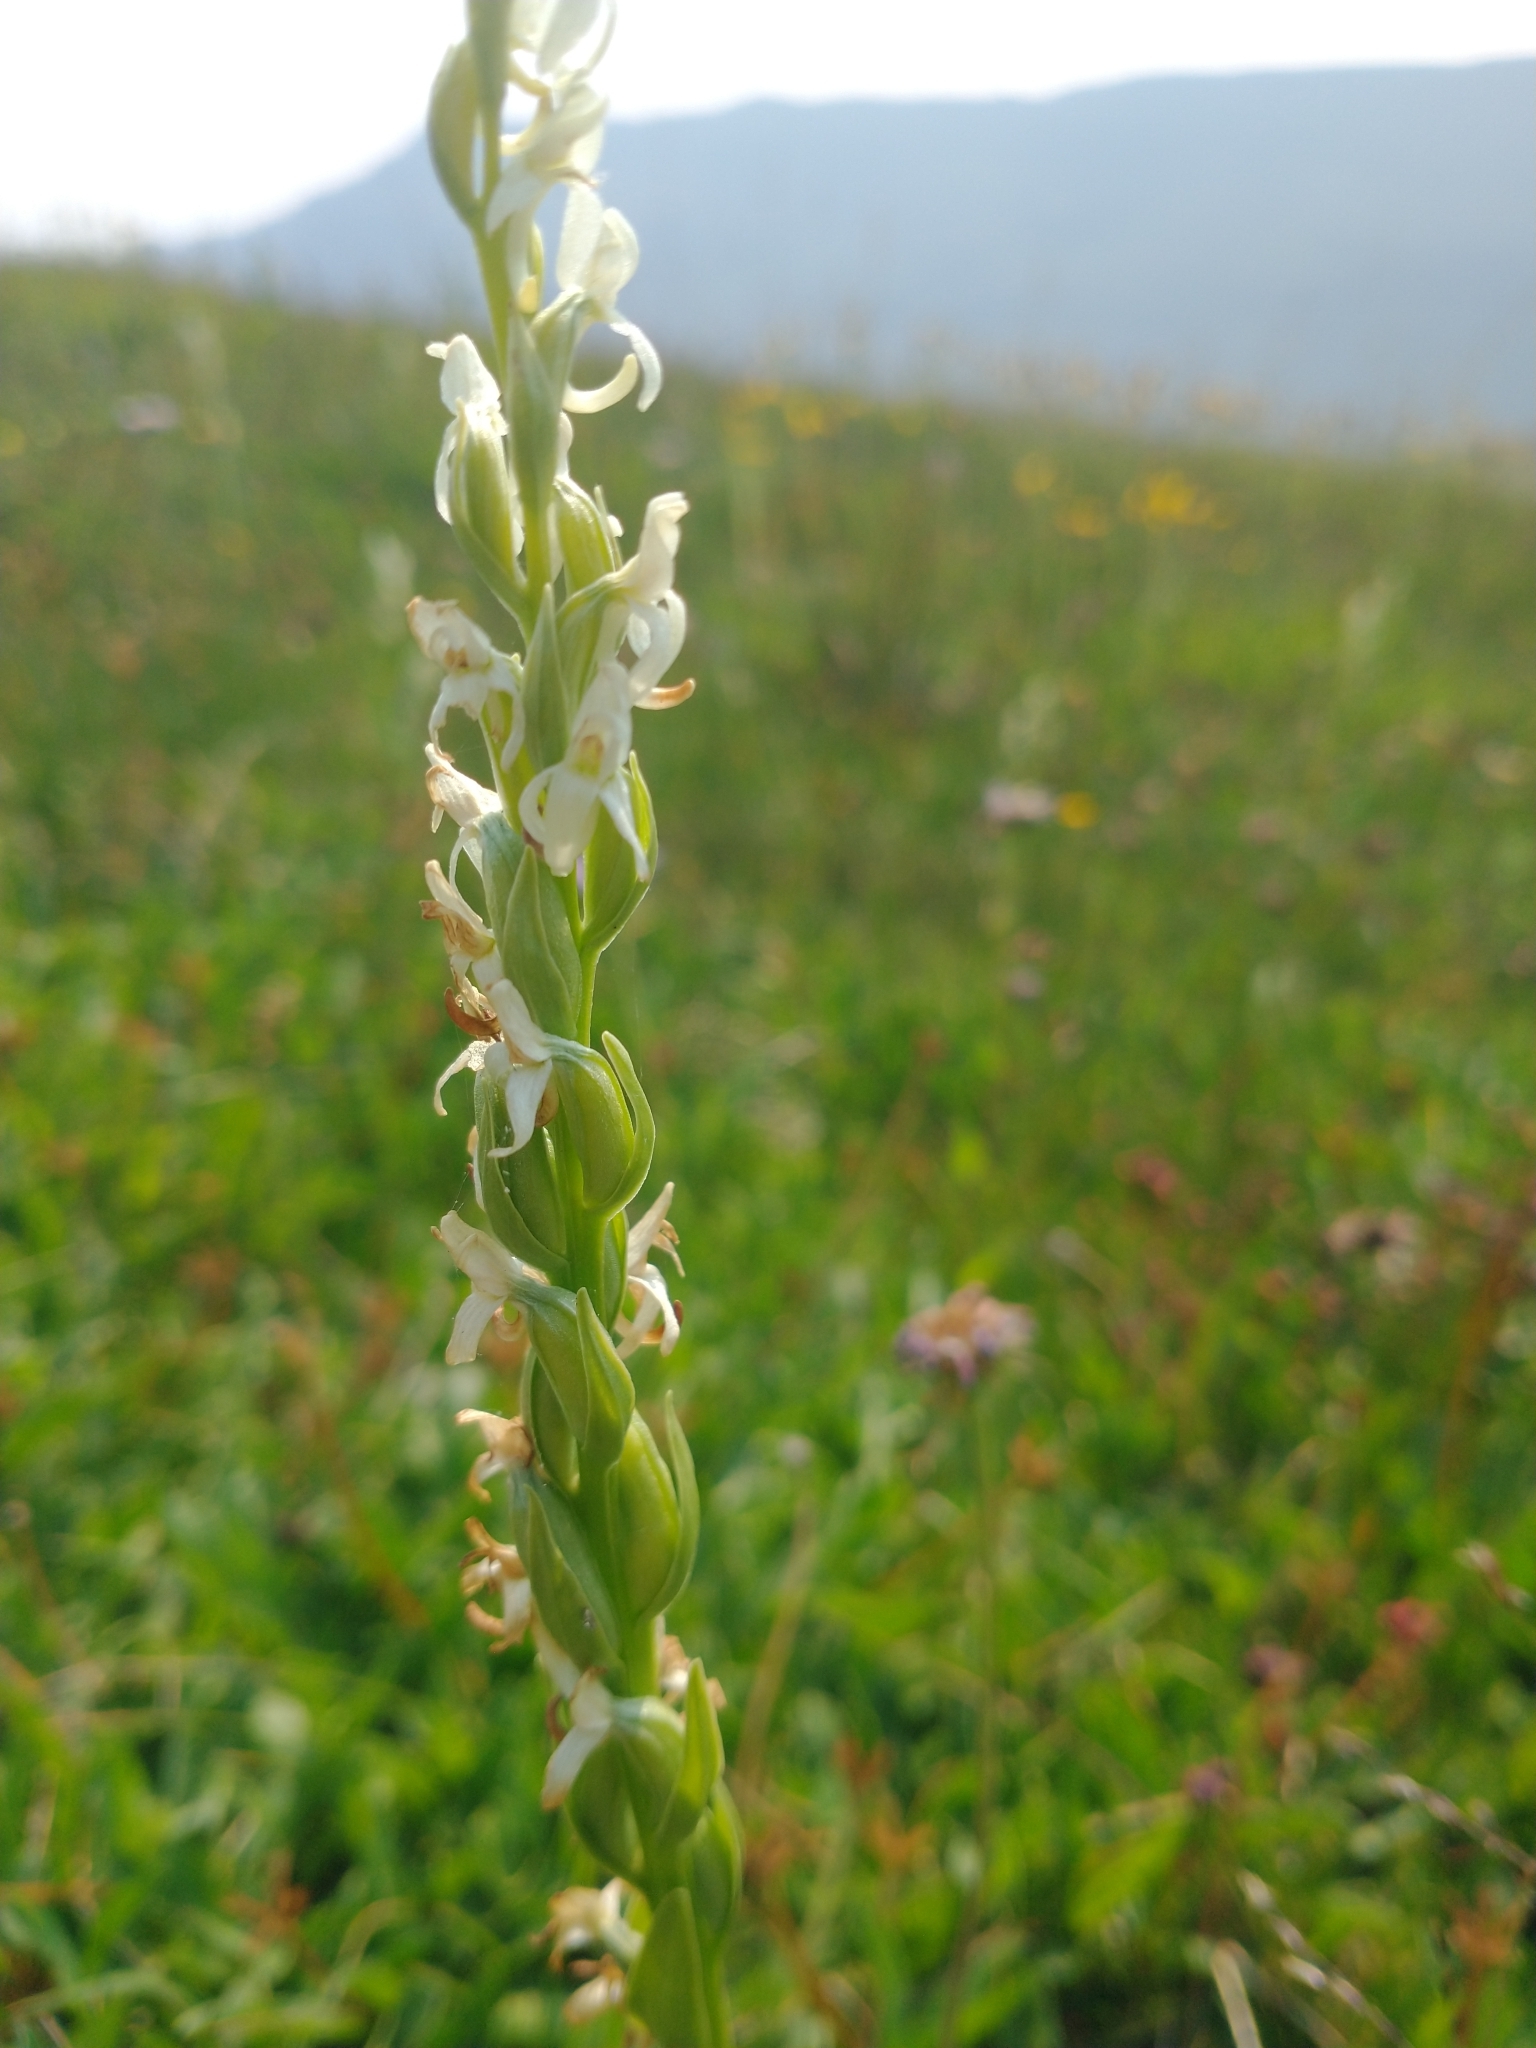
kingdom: Plantae
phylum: Tracheophyta
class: Liliopsida
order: Asparagales
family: Orchidaceae
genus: Platanthera
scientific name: Platanthera dilatata
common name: Bog candles
